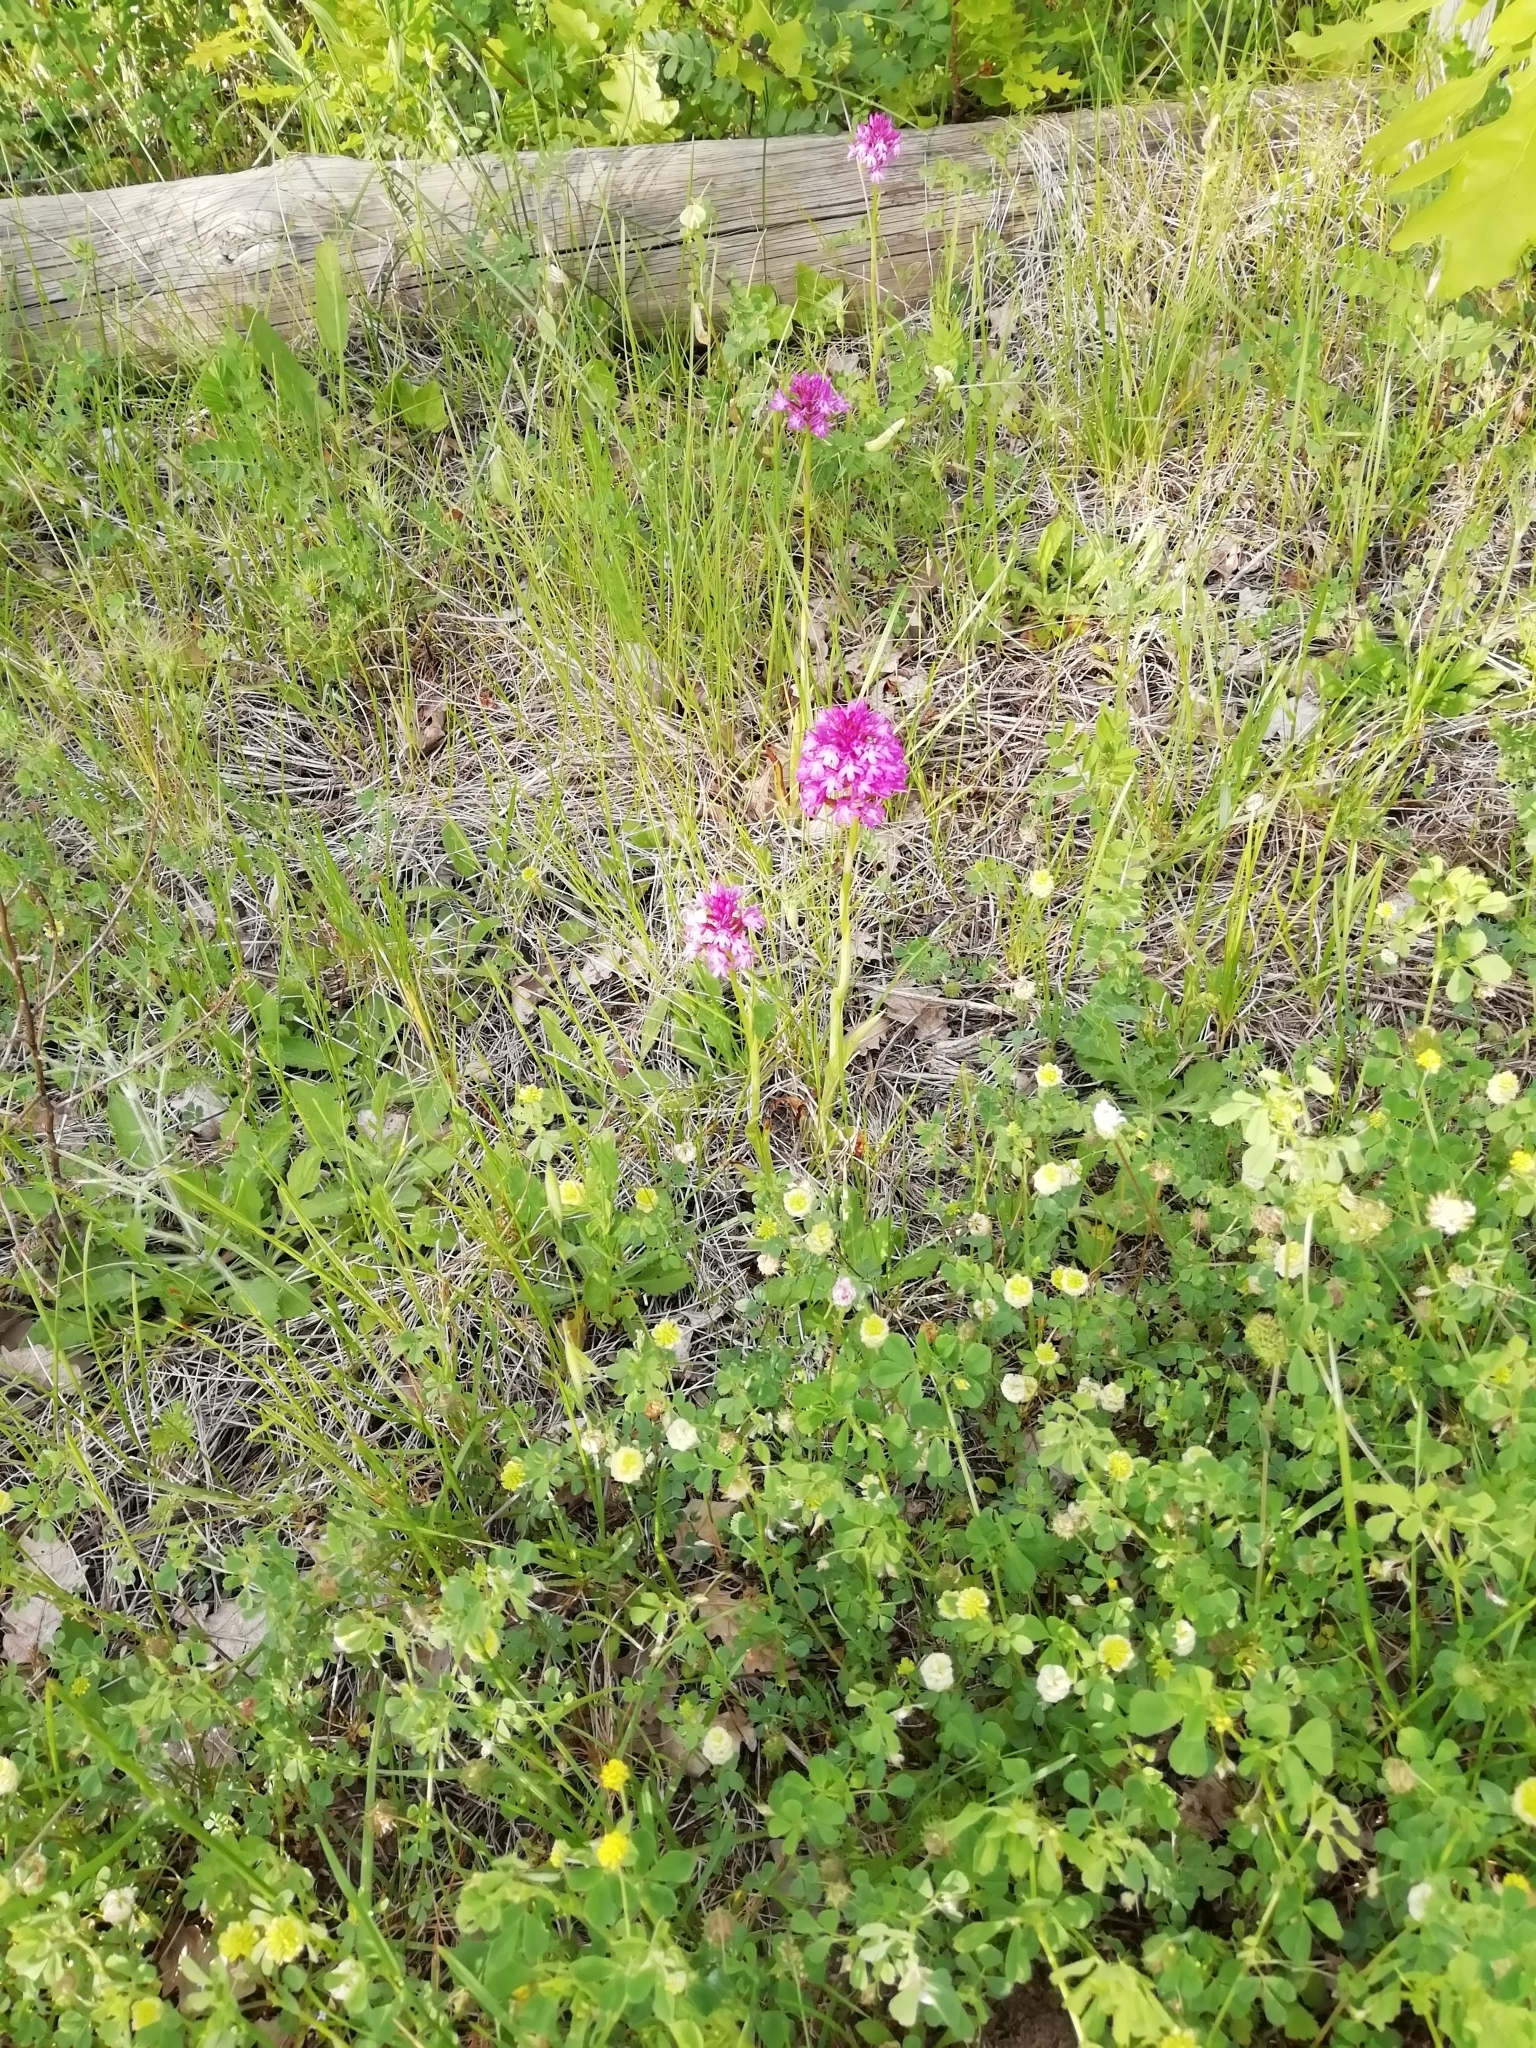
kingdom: Plantae
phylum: Tracheophyta
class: Liliopsida
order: Asparagales
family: Orchidaceae
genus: Anacamptis
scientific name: Anacamptis pyramidalis
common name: Pyramidal orchid
